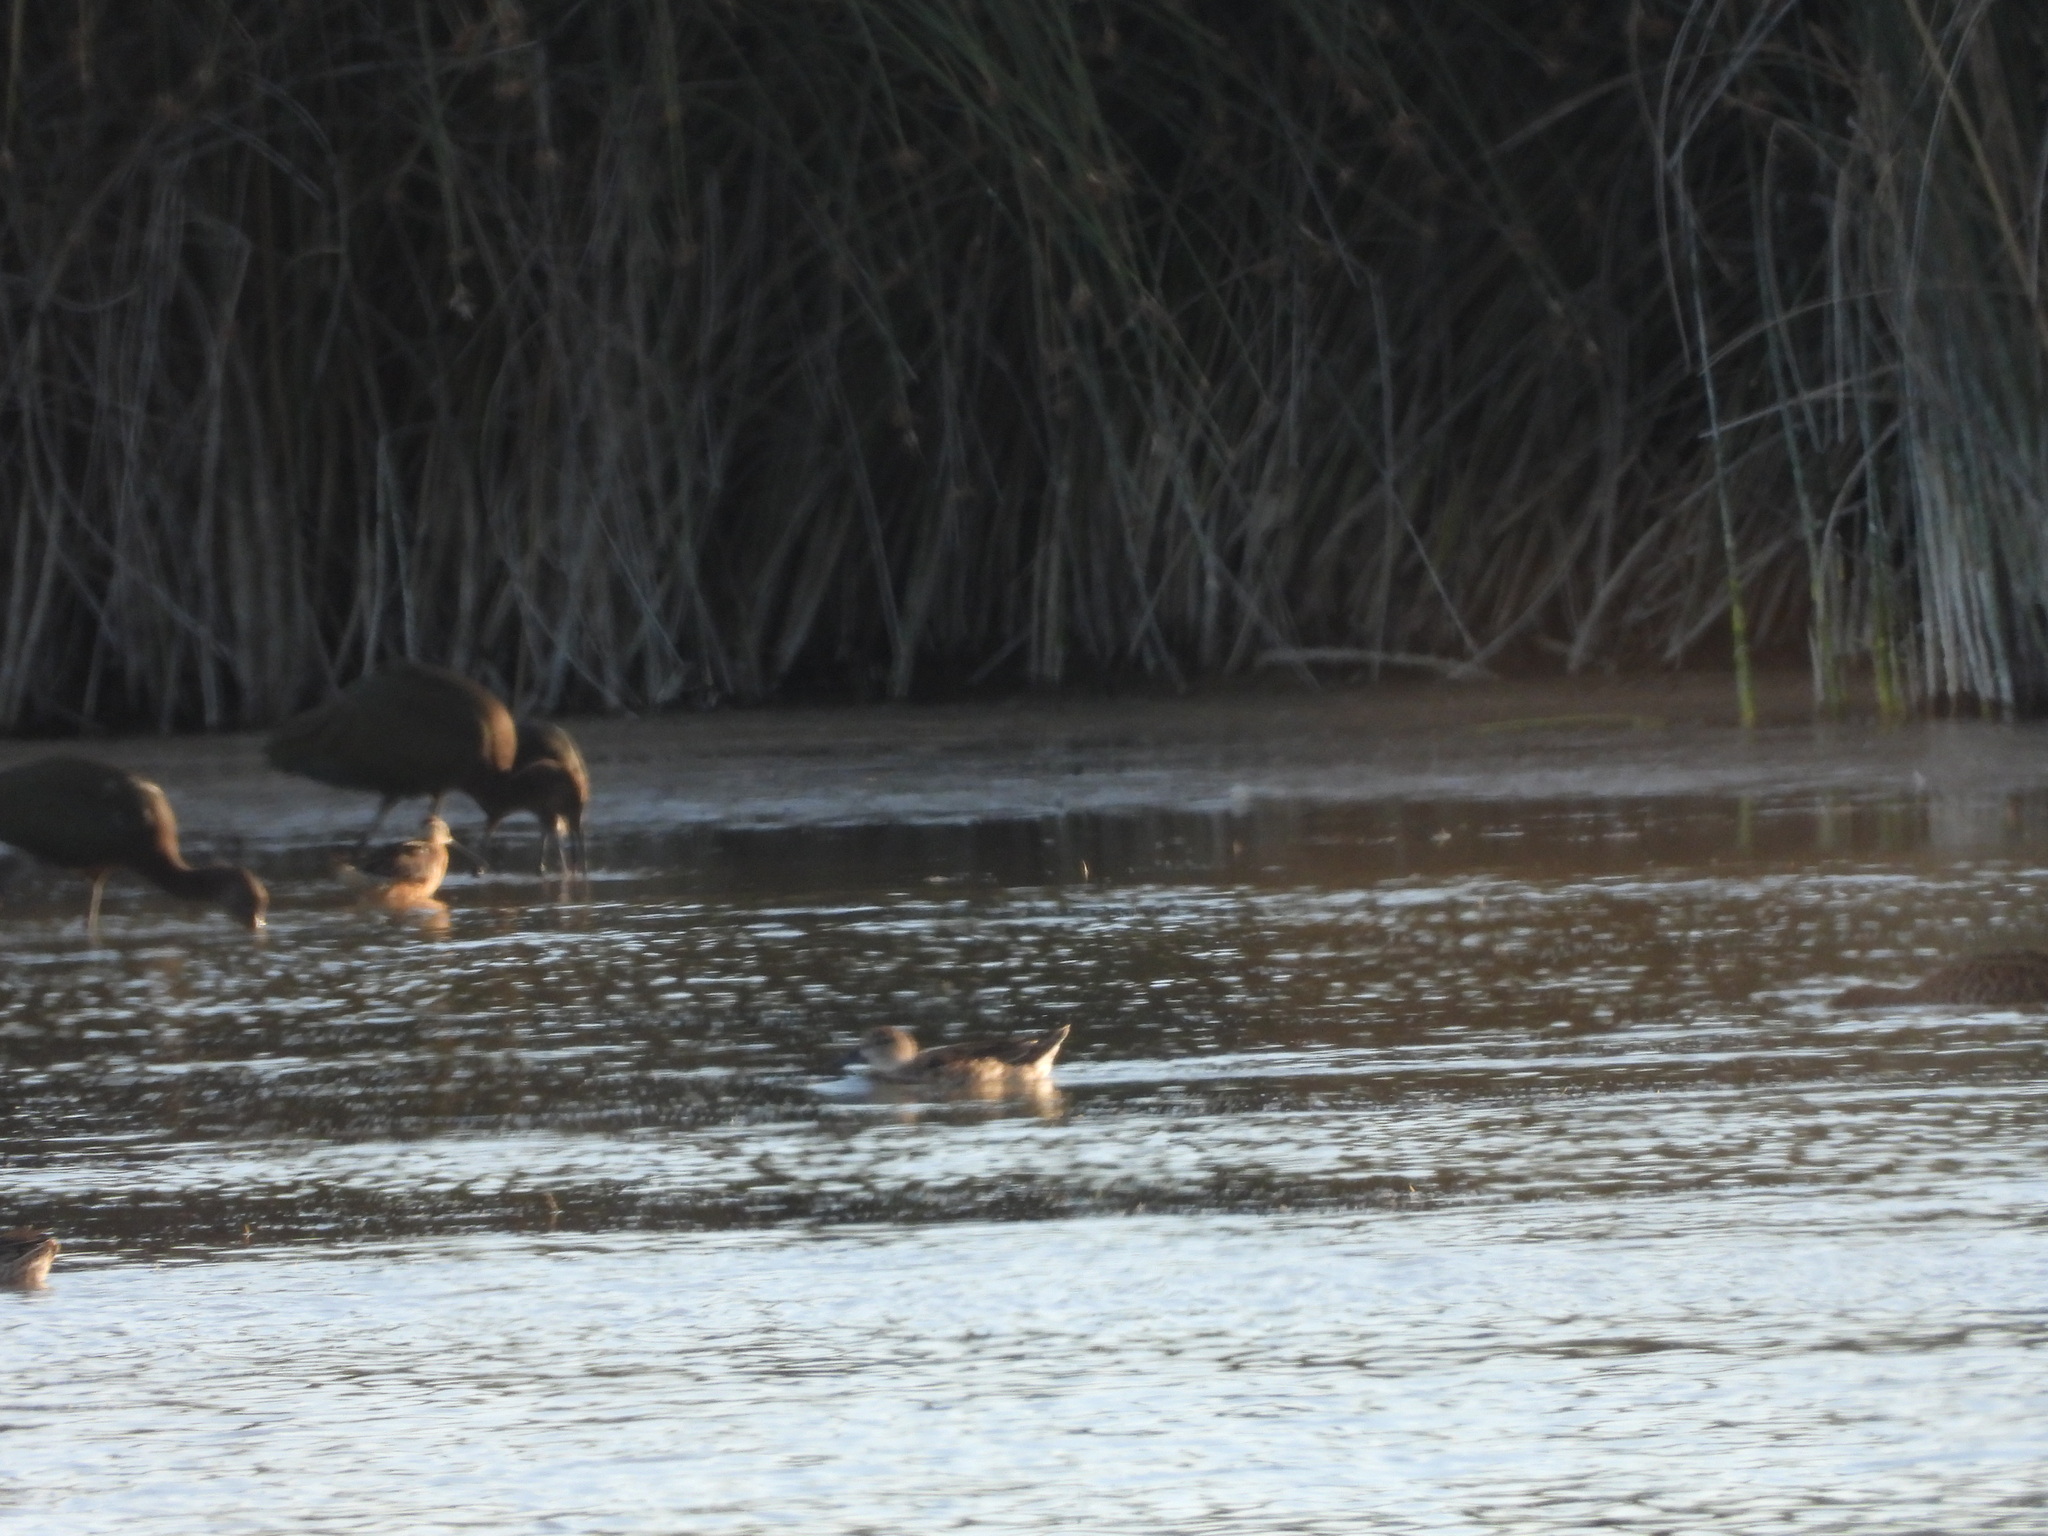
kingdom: Animalia
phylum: Chordata
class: Aves
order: Anseriformes
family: Anatidae
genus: Spatula
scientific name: Spatula cyanoptera
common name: Cinnamon teal
